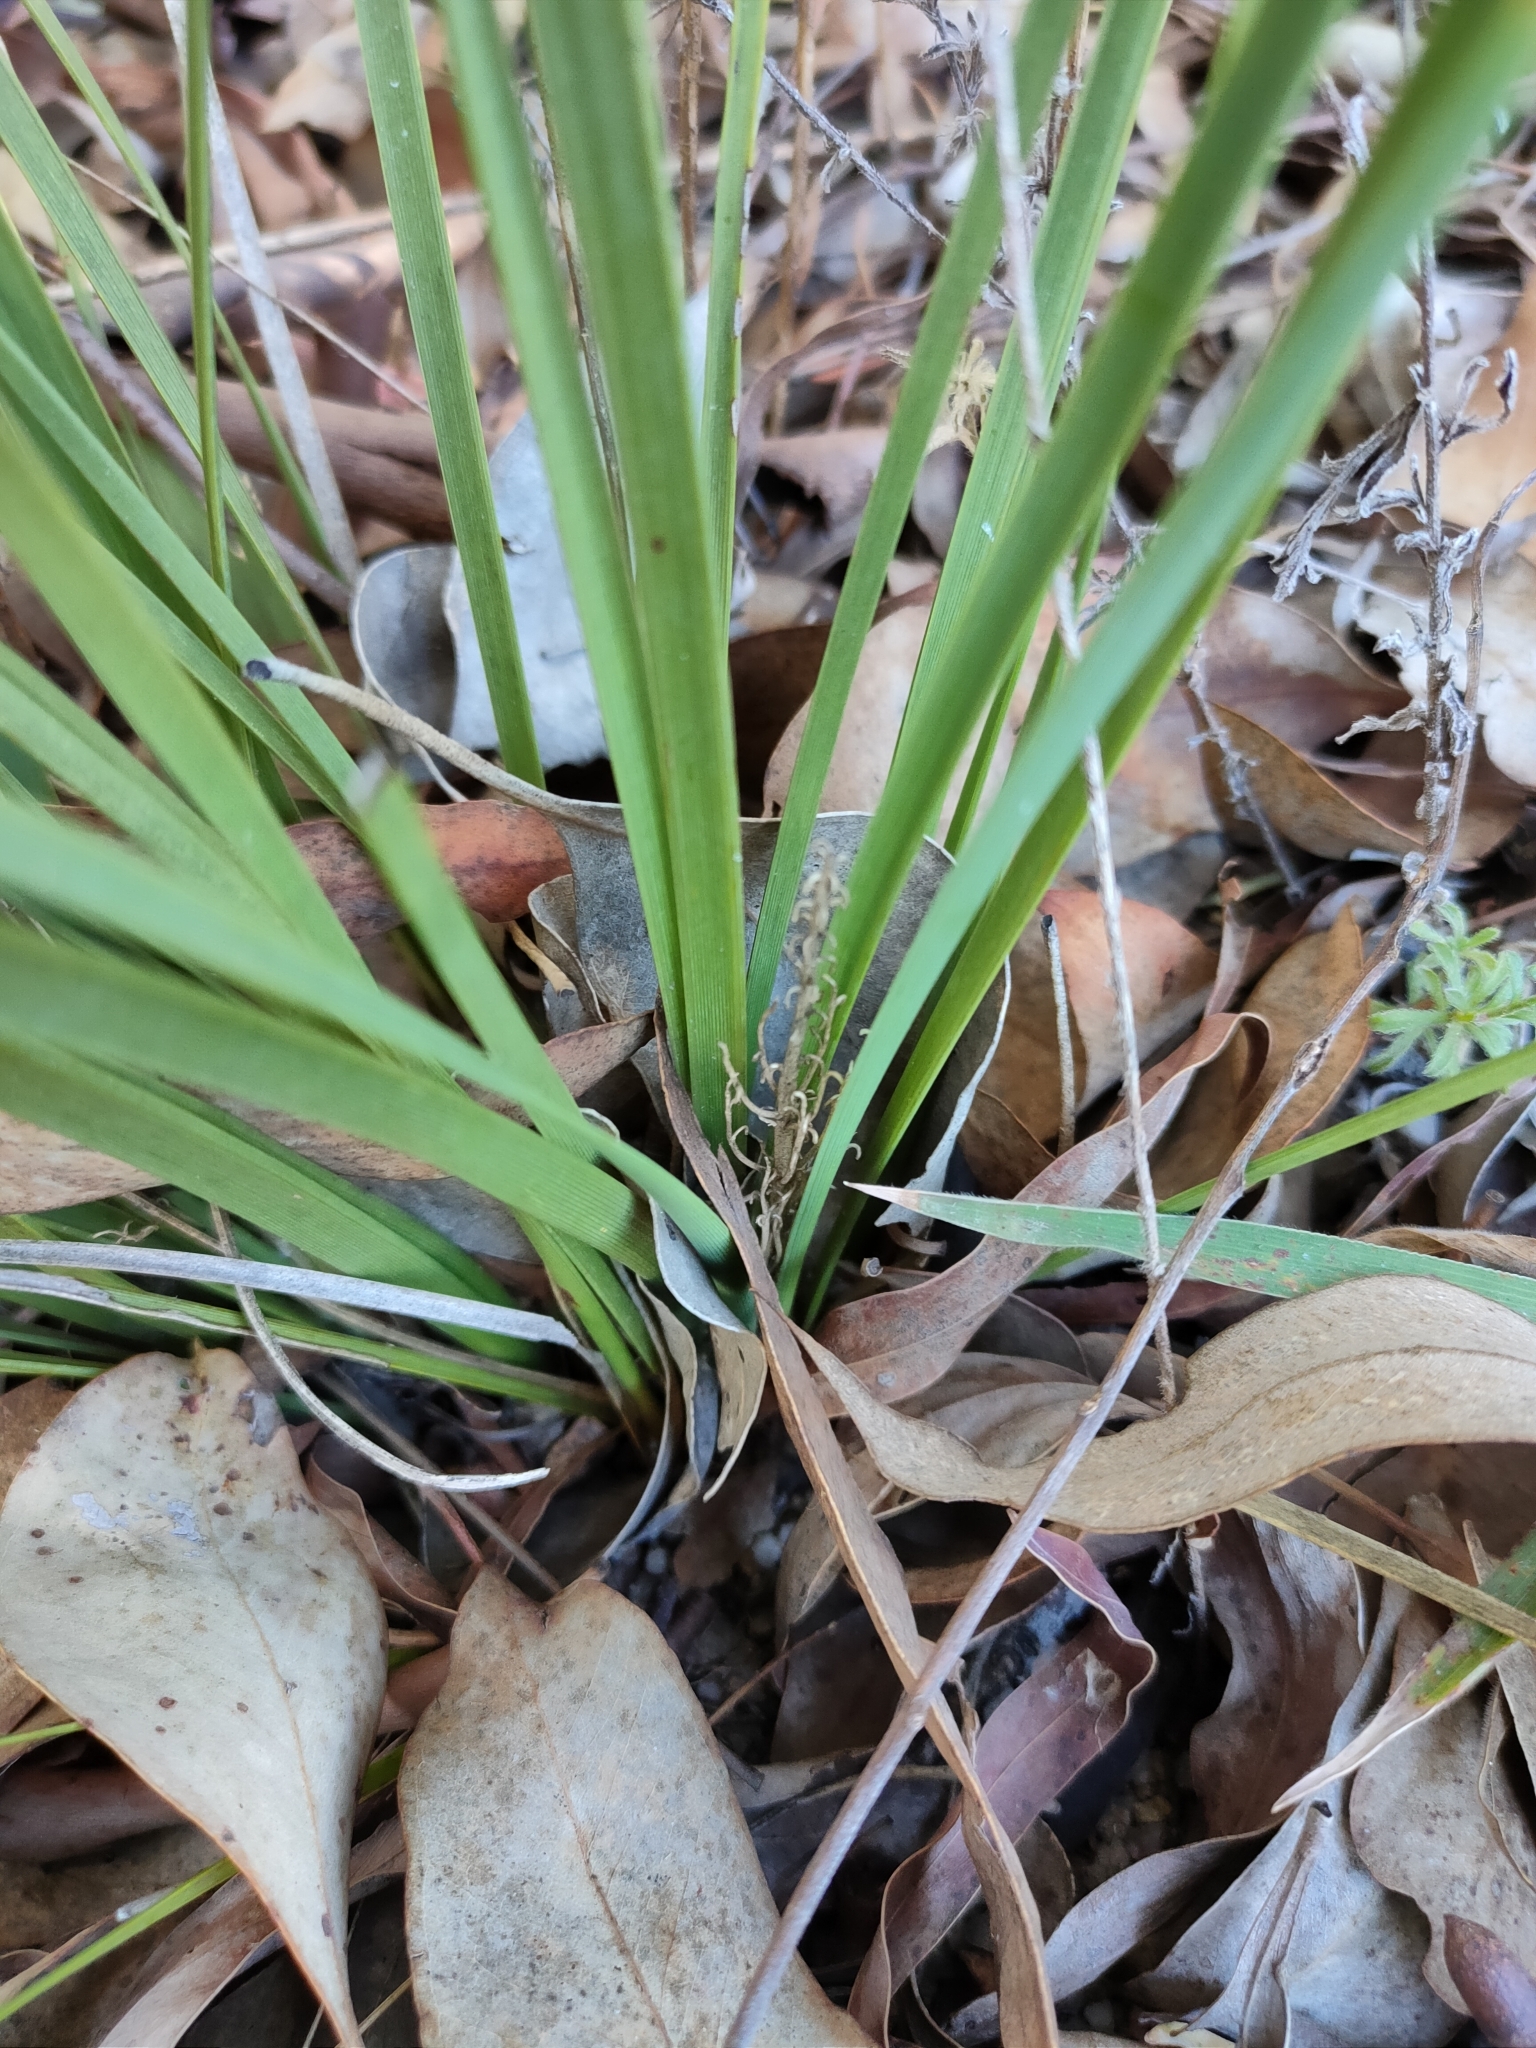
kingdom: Plantae
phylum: Tracheophyta
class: Liliopsida
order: Asparagales
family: Asparagaceae
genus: Lomandra
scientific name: Lomandra filiformis
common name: Wattle mat-rush
